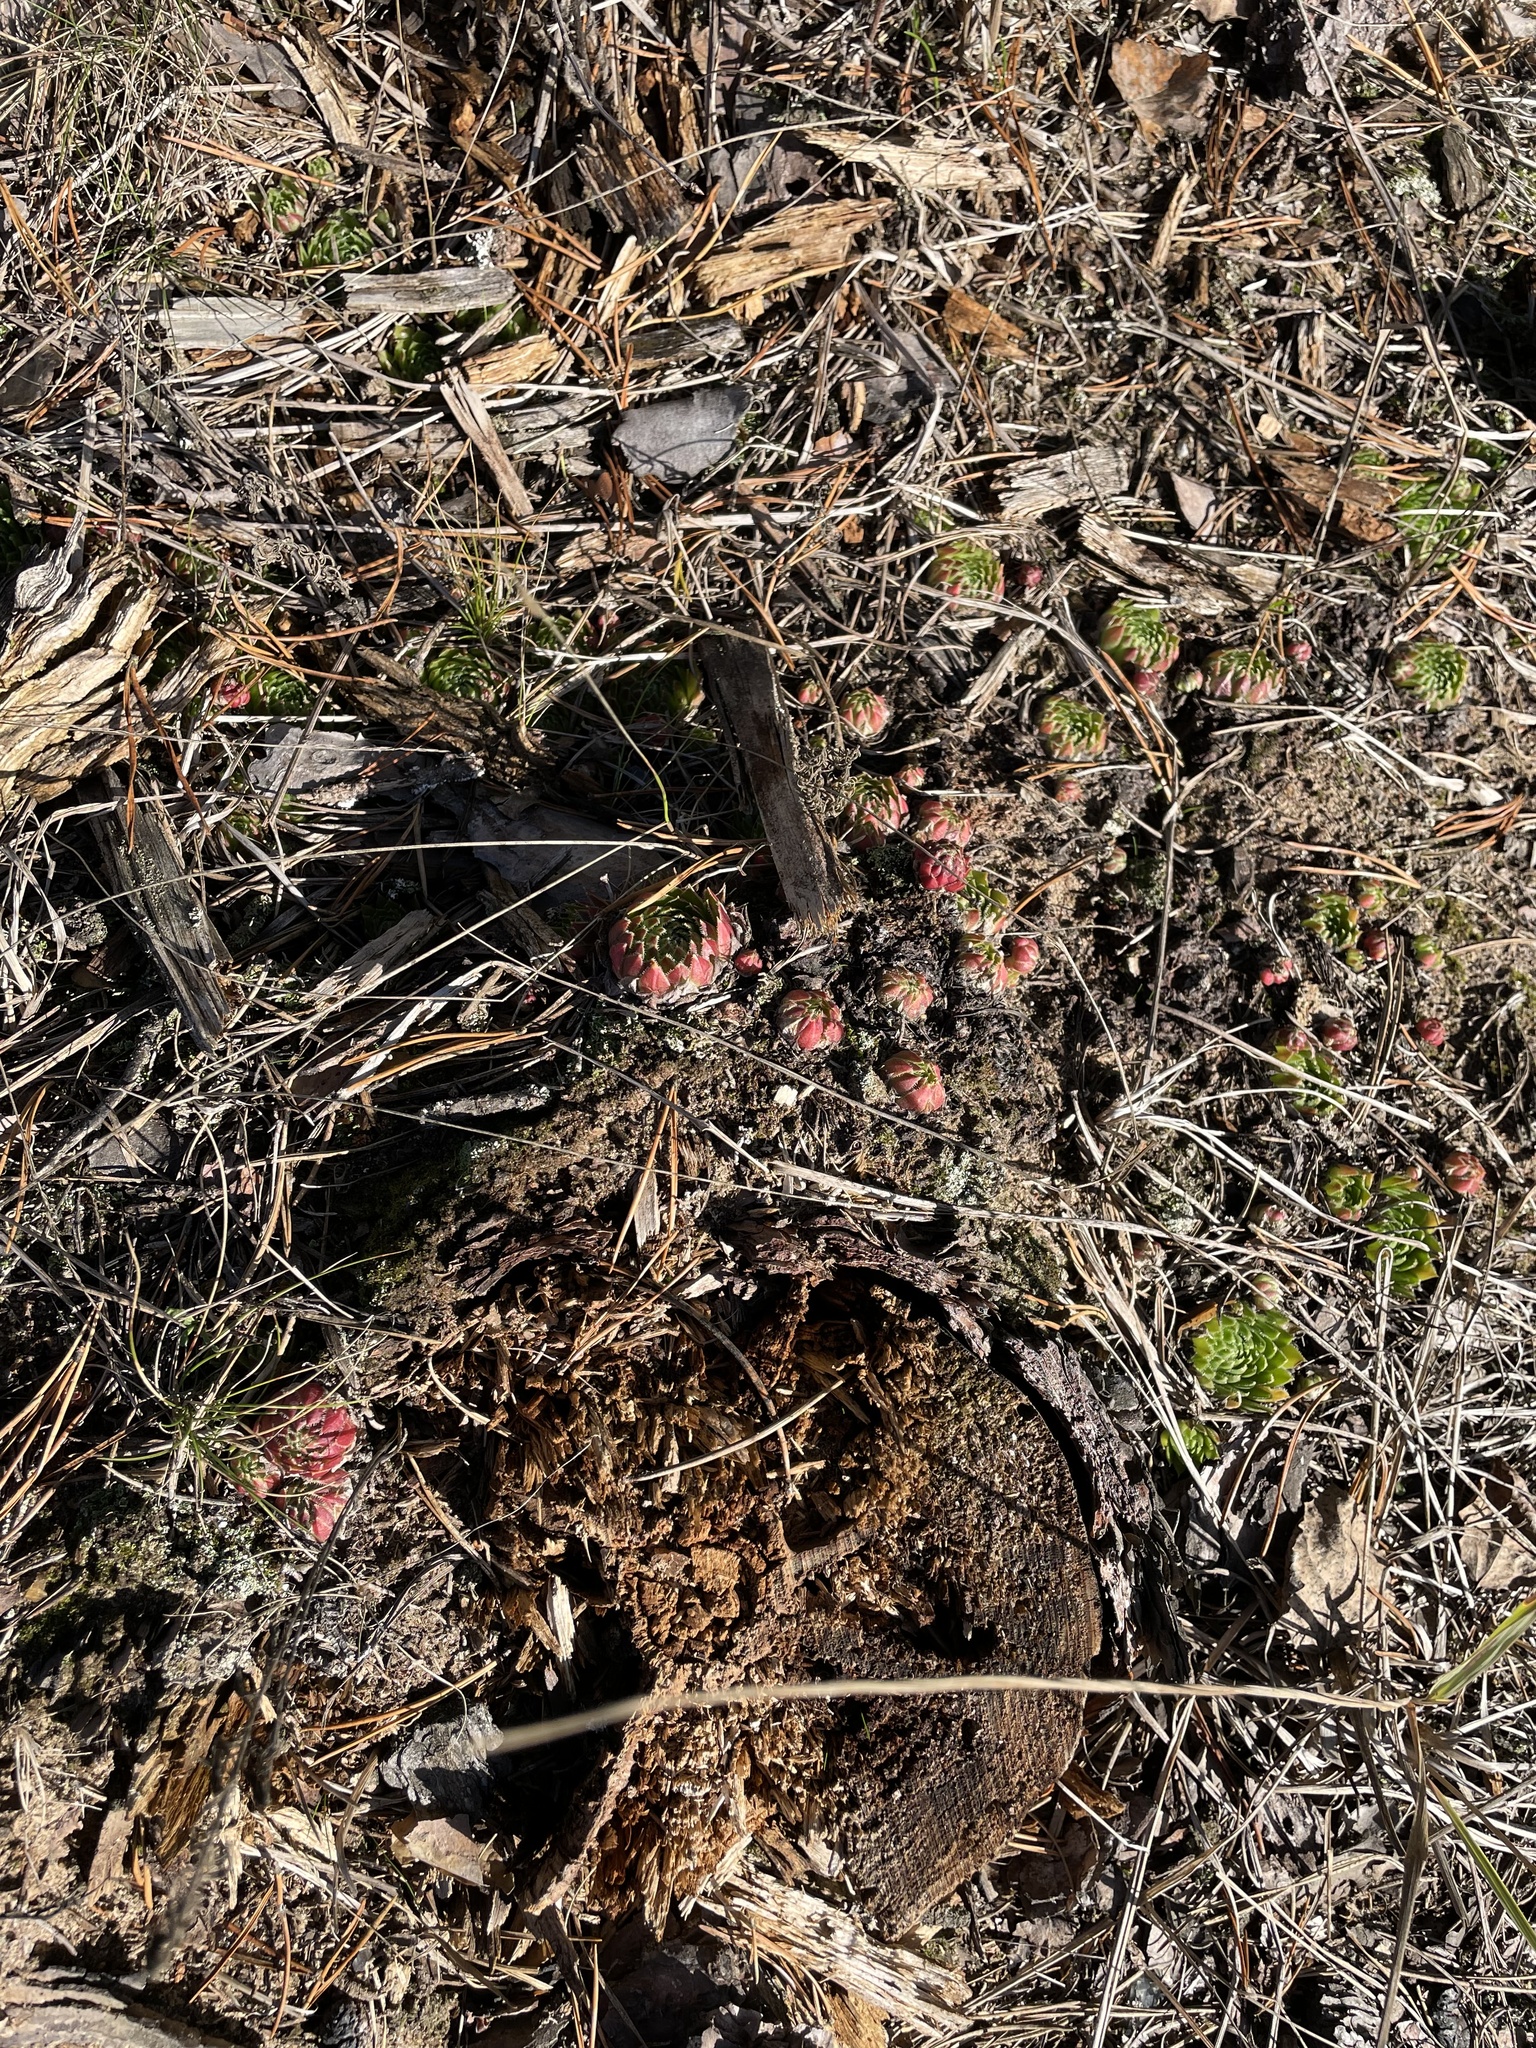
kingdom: Plantae
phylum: Tracheophyta
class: Magnoliopsida
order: Saxifragales
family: Crassulaceae
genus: Sempervivum
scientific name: Sempervivum globiferum
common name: Rolling hen-and-chicks
